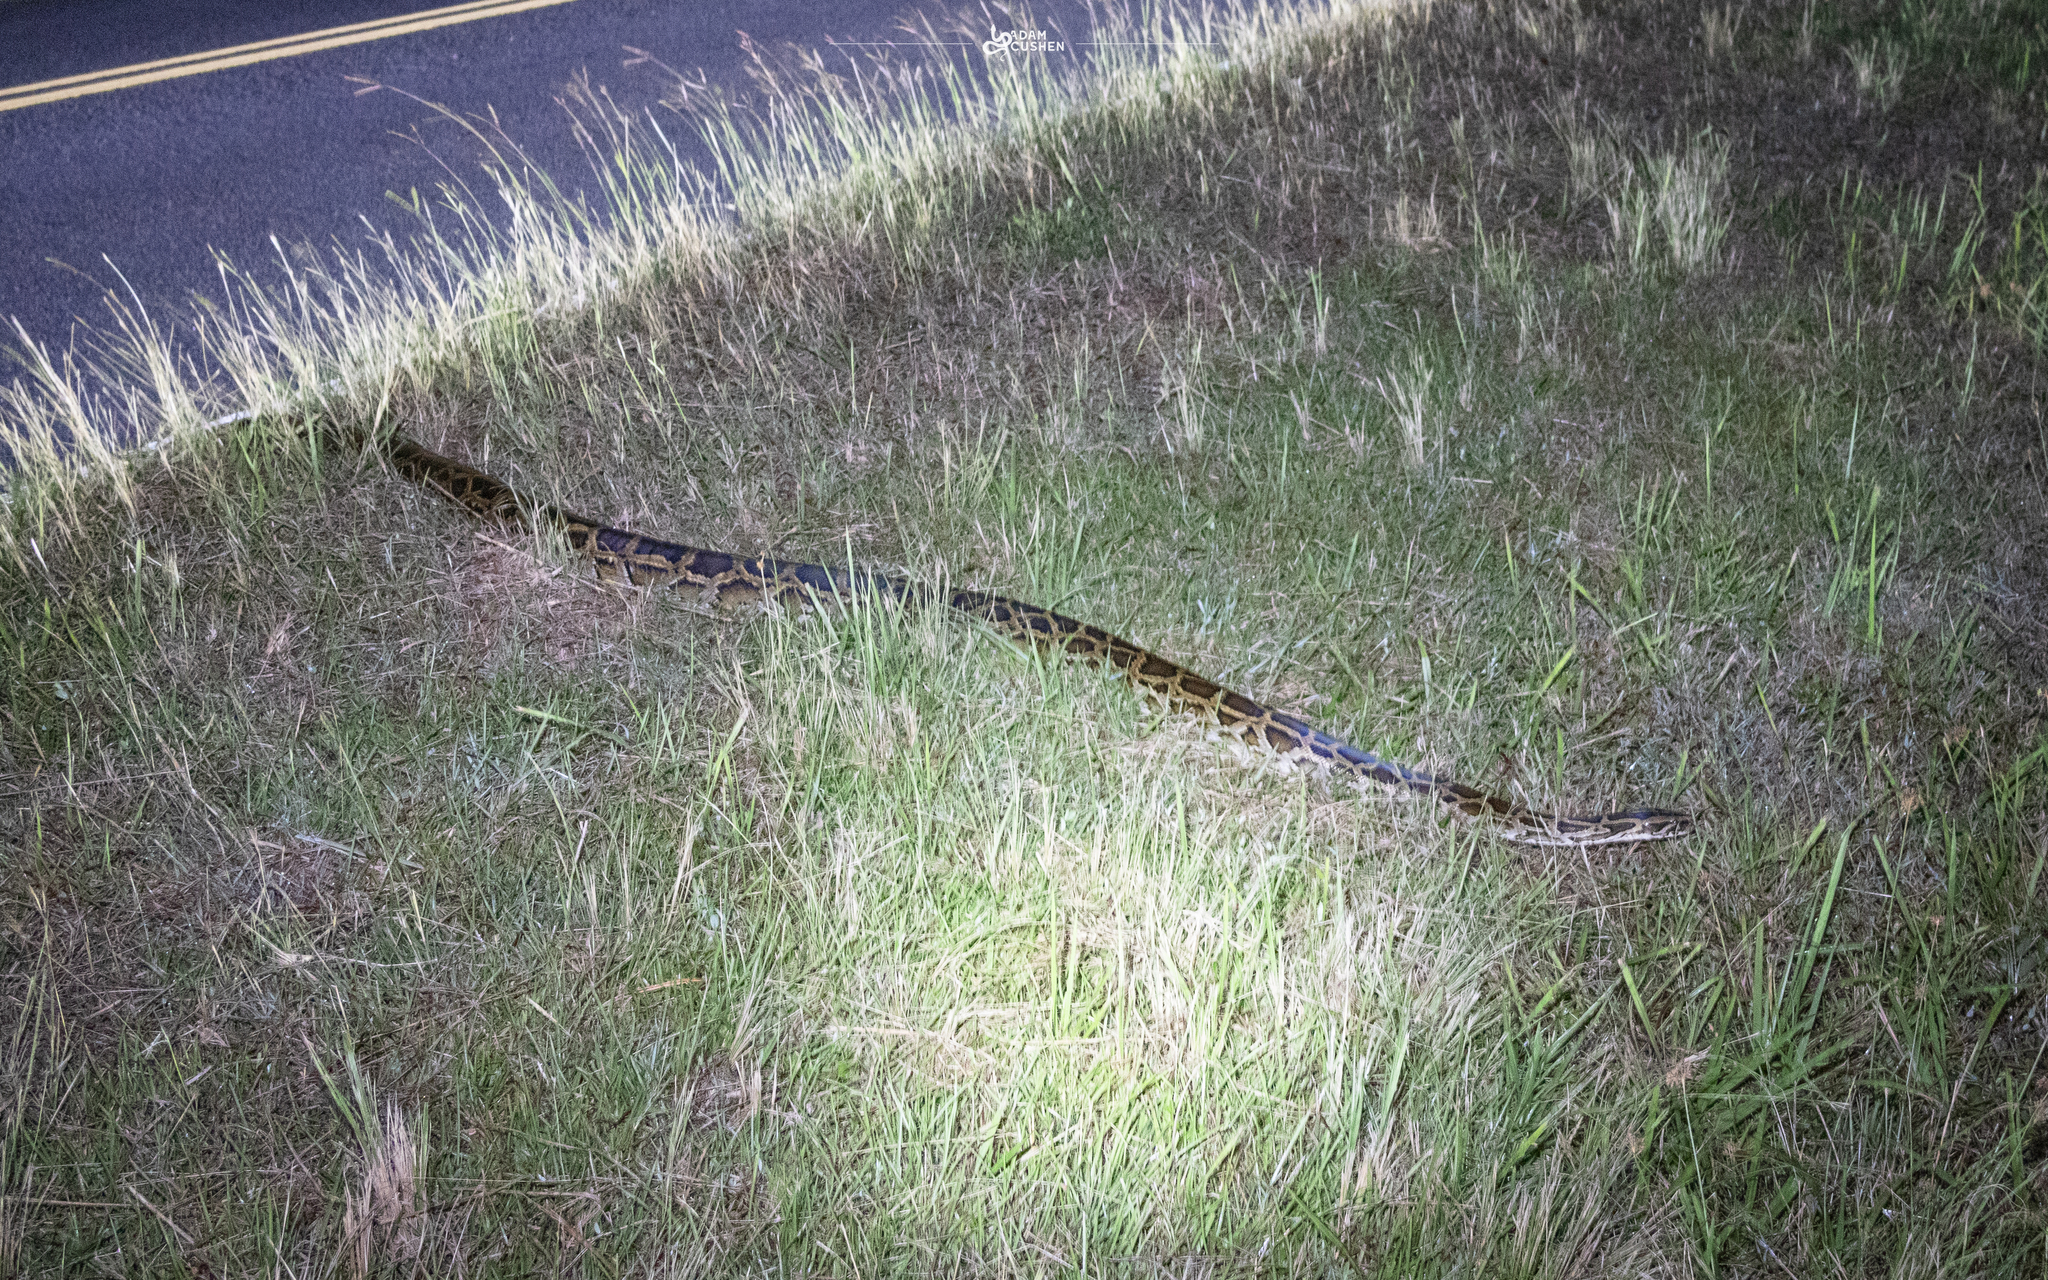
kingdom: Animalia
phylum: Chordata
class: Squamata
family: Pythonidae
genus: Python
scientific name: Python bivittatus
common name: Burmese python
